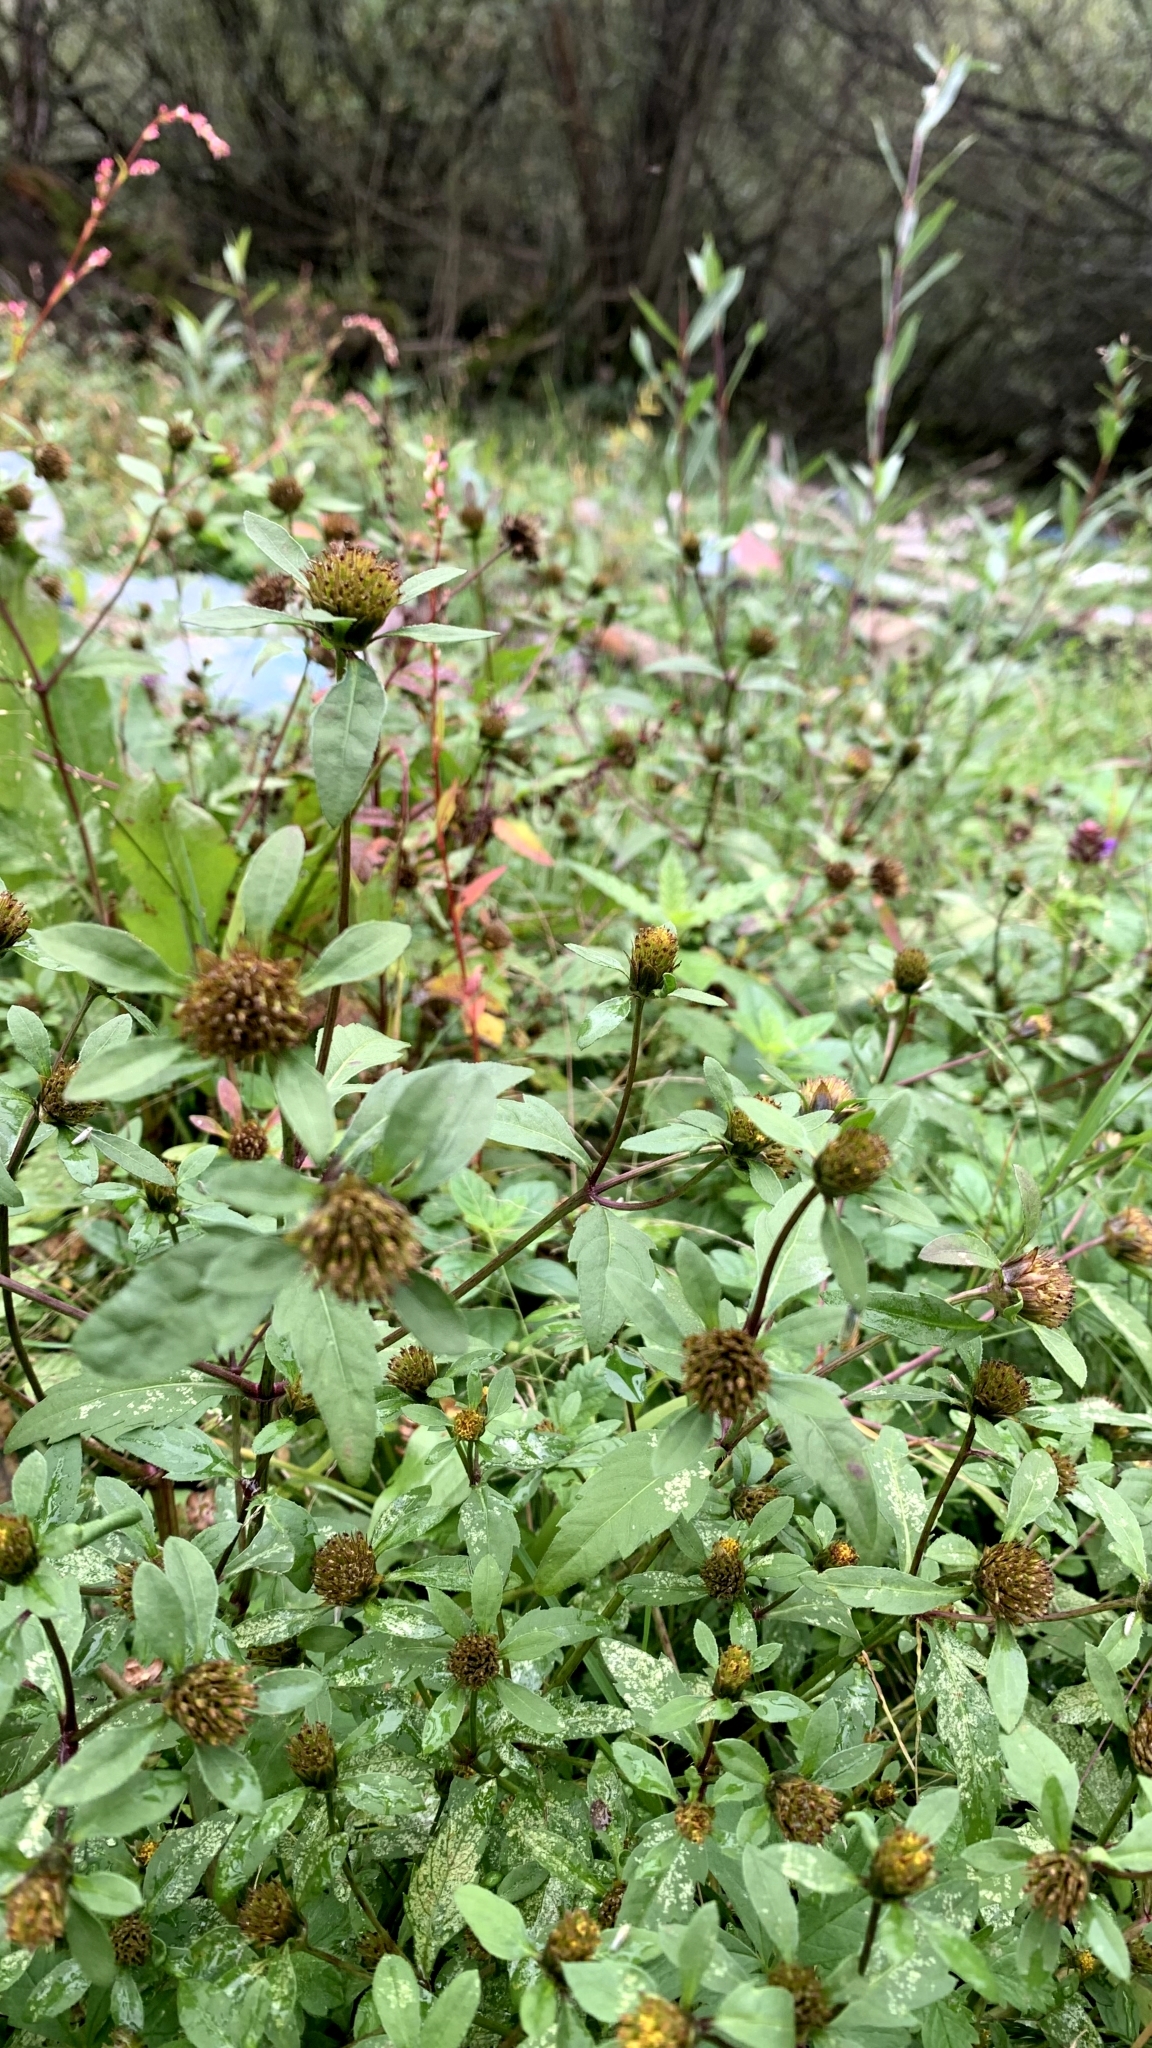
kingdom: Plantae
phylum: Tracheophyta
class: Magnoliopsida
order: Asterales
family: Asteraceae
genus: Bidens
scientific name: Bidens tripartita
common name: Trifid bur-marigold
